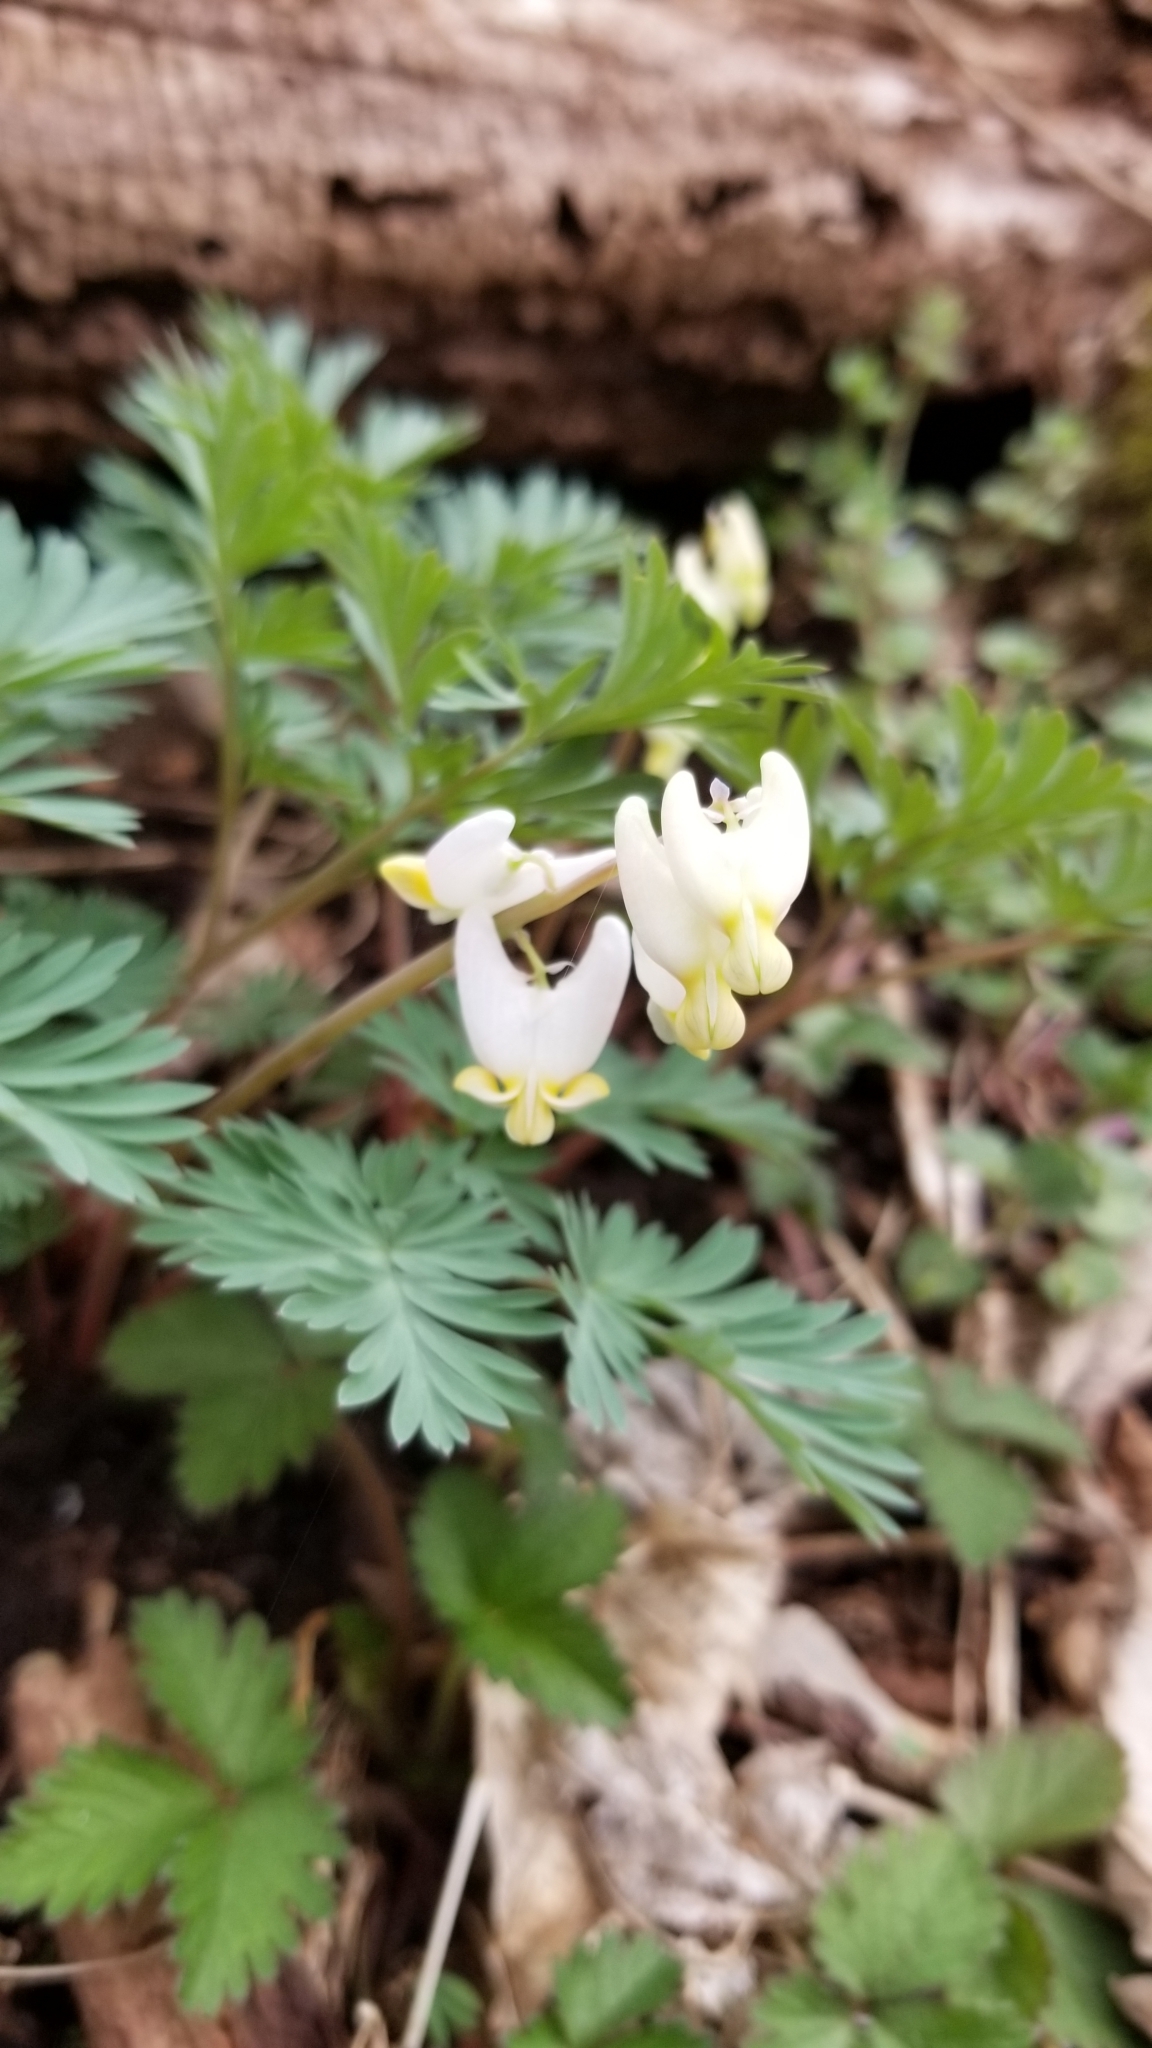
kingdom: Plantae
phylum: Tracheophyta
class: Magnoliopsida
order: Ranunculales
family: Papaveraceae
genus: Dicentra
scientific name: Dicentra cucullaria
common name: Dutchman's breeches
